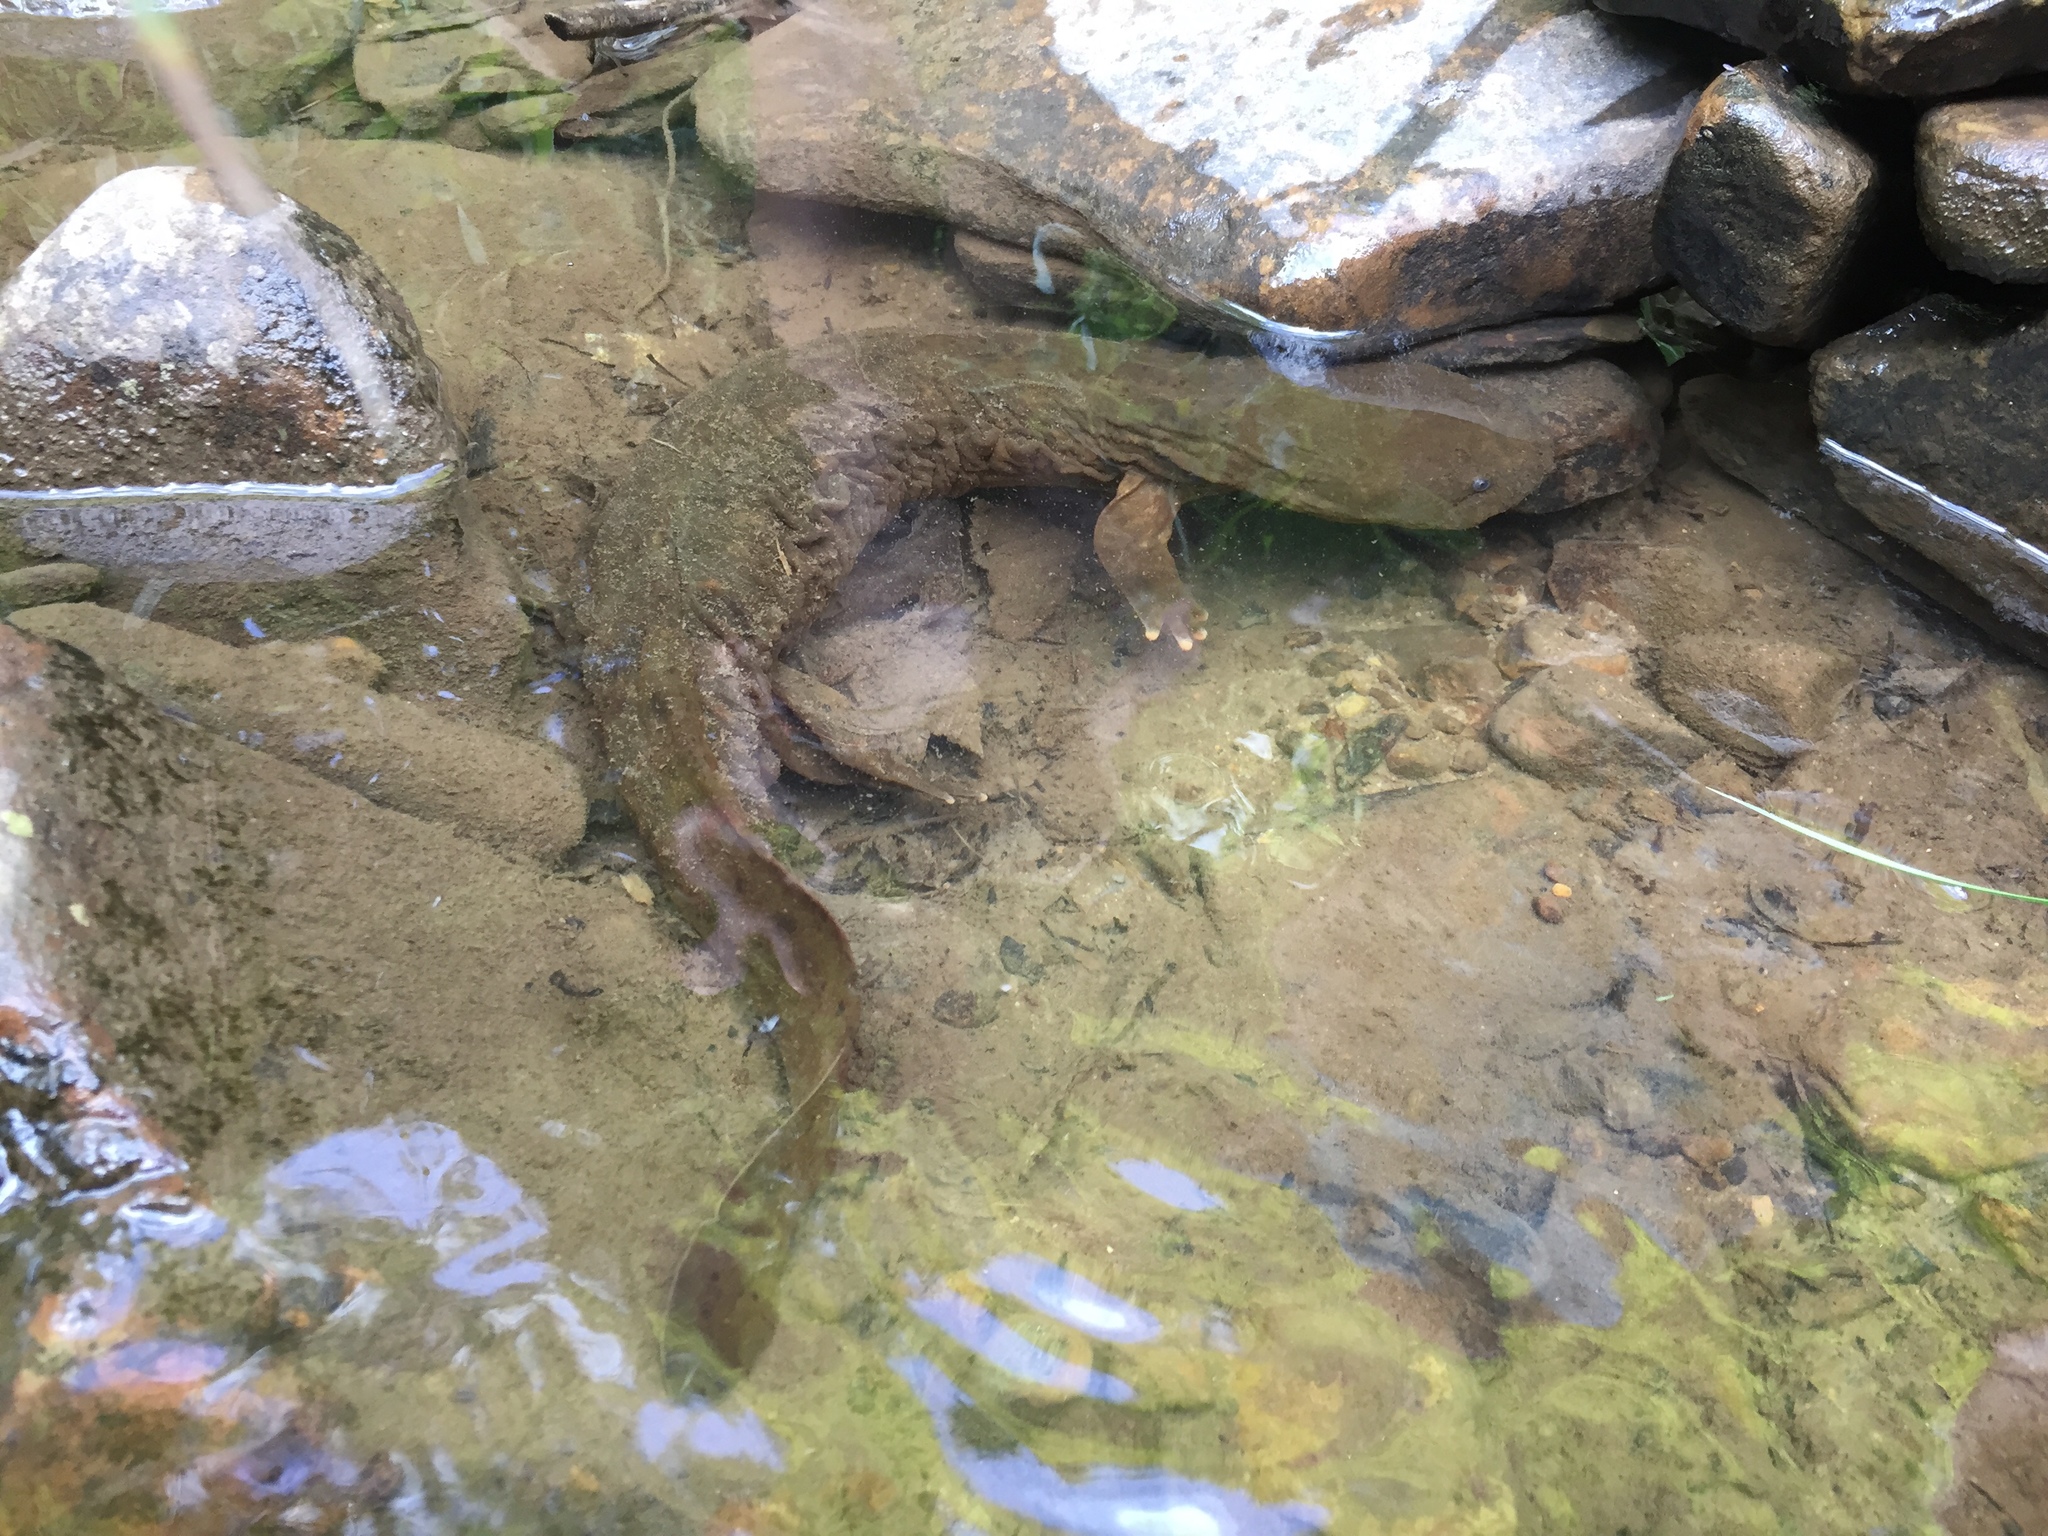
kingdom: Animalia
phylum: Chordata
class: Amphibia
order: Caudata
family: Cryptobranchidae
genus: Cryptobranchus
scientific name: Cryptobranchus alleganiensis
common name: Hellbender
